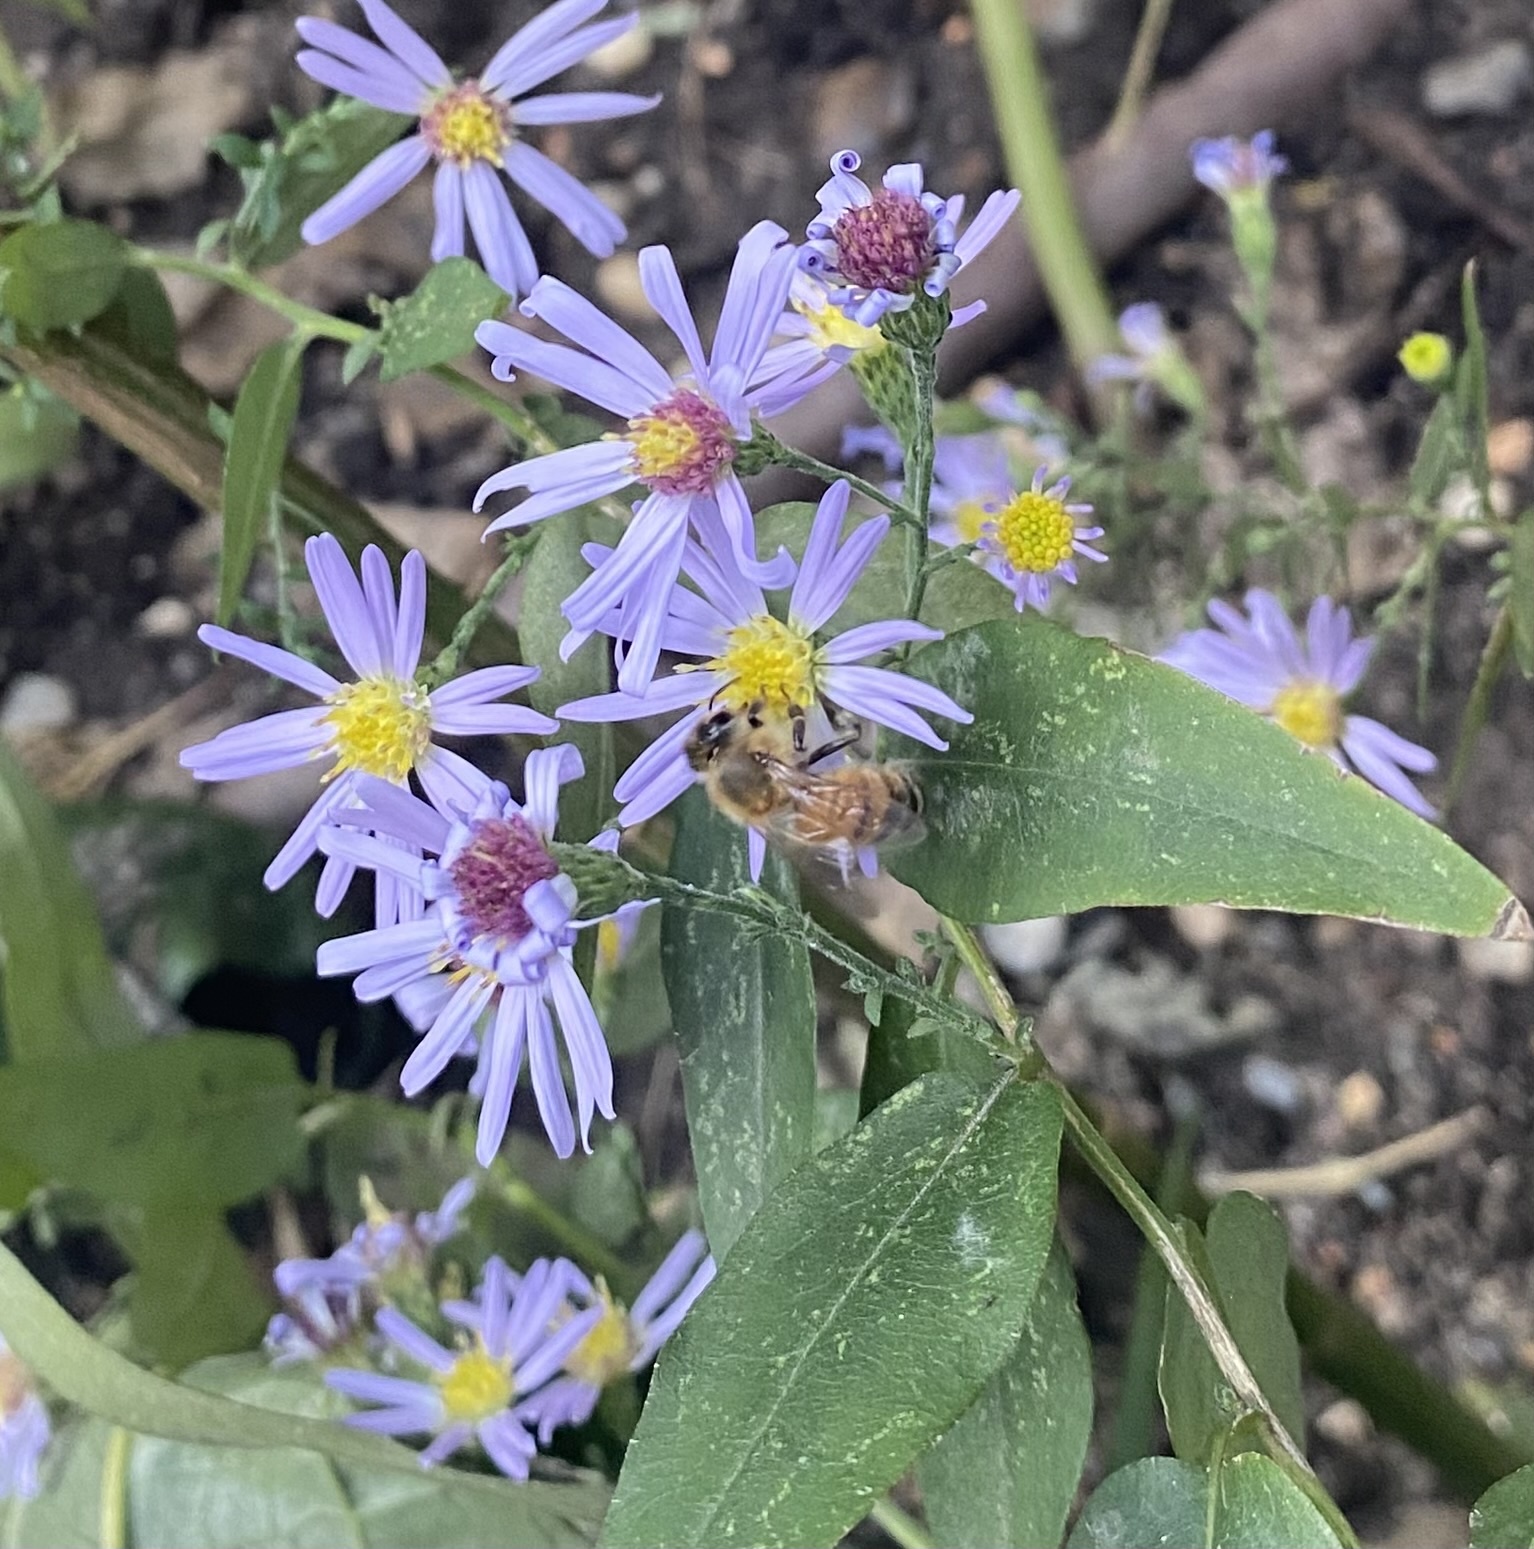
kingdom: Animalia
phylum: Arthropoda
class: Insecta
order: Hymenoptera
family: Apidae
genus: Apis
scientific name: Apis mellifera
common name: Honey bee
